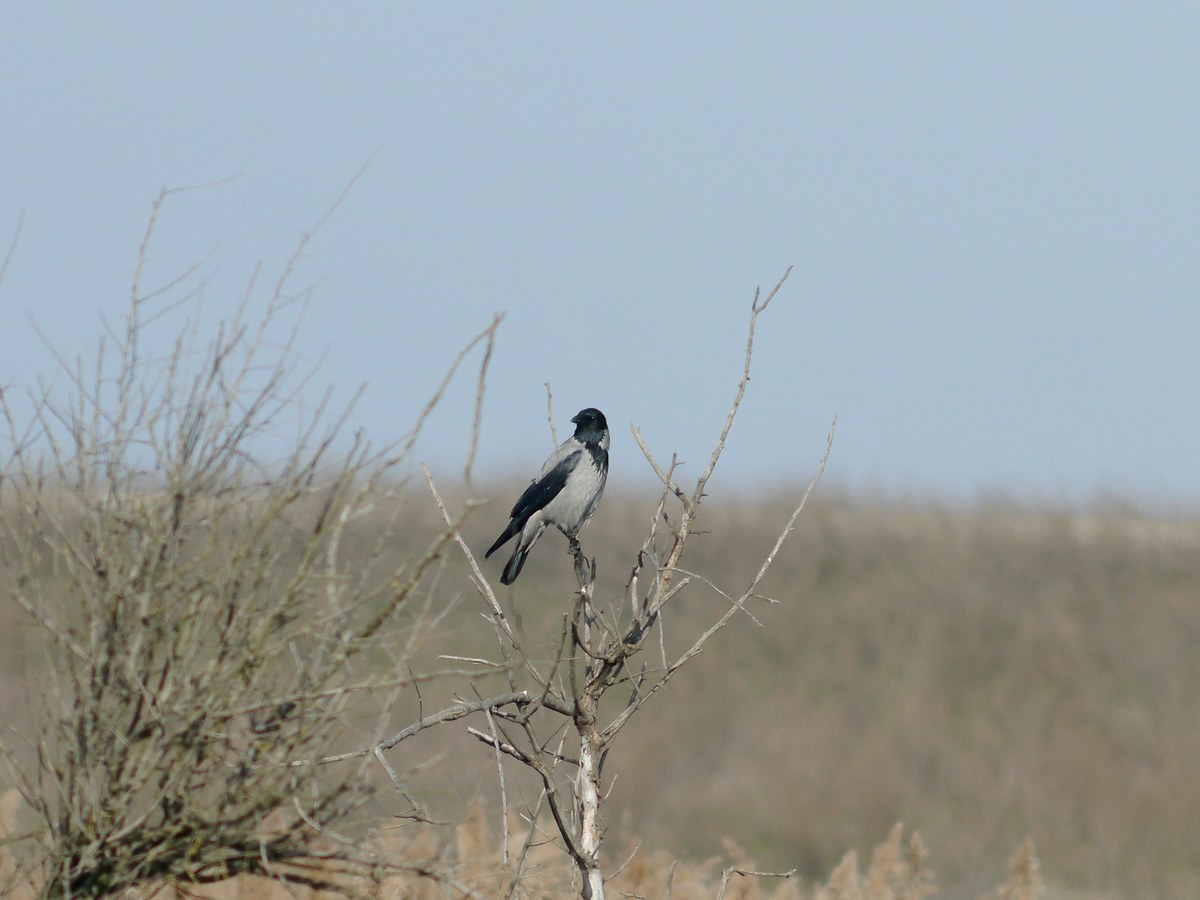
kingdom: Animalia
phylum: Chordata
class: Aves
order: Passeriformes
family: Corvidae
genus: Corvus
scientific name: Corvus cornix
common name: Hooded crow
